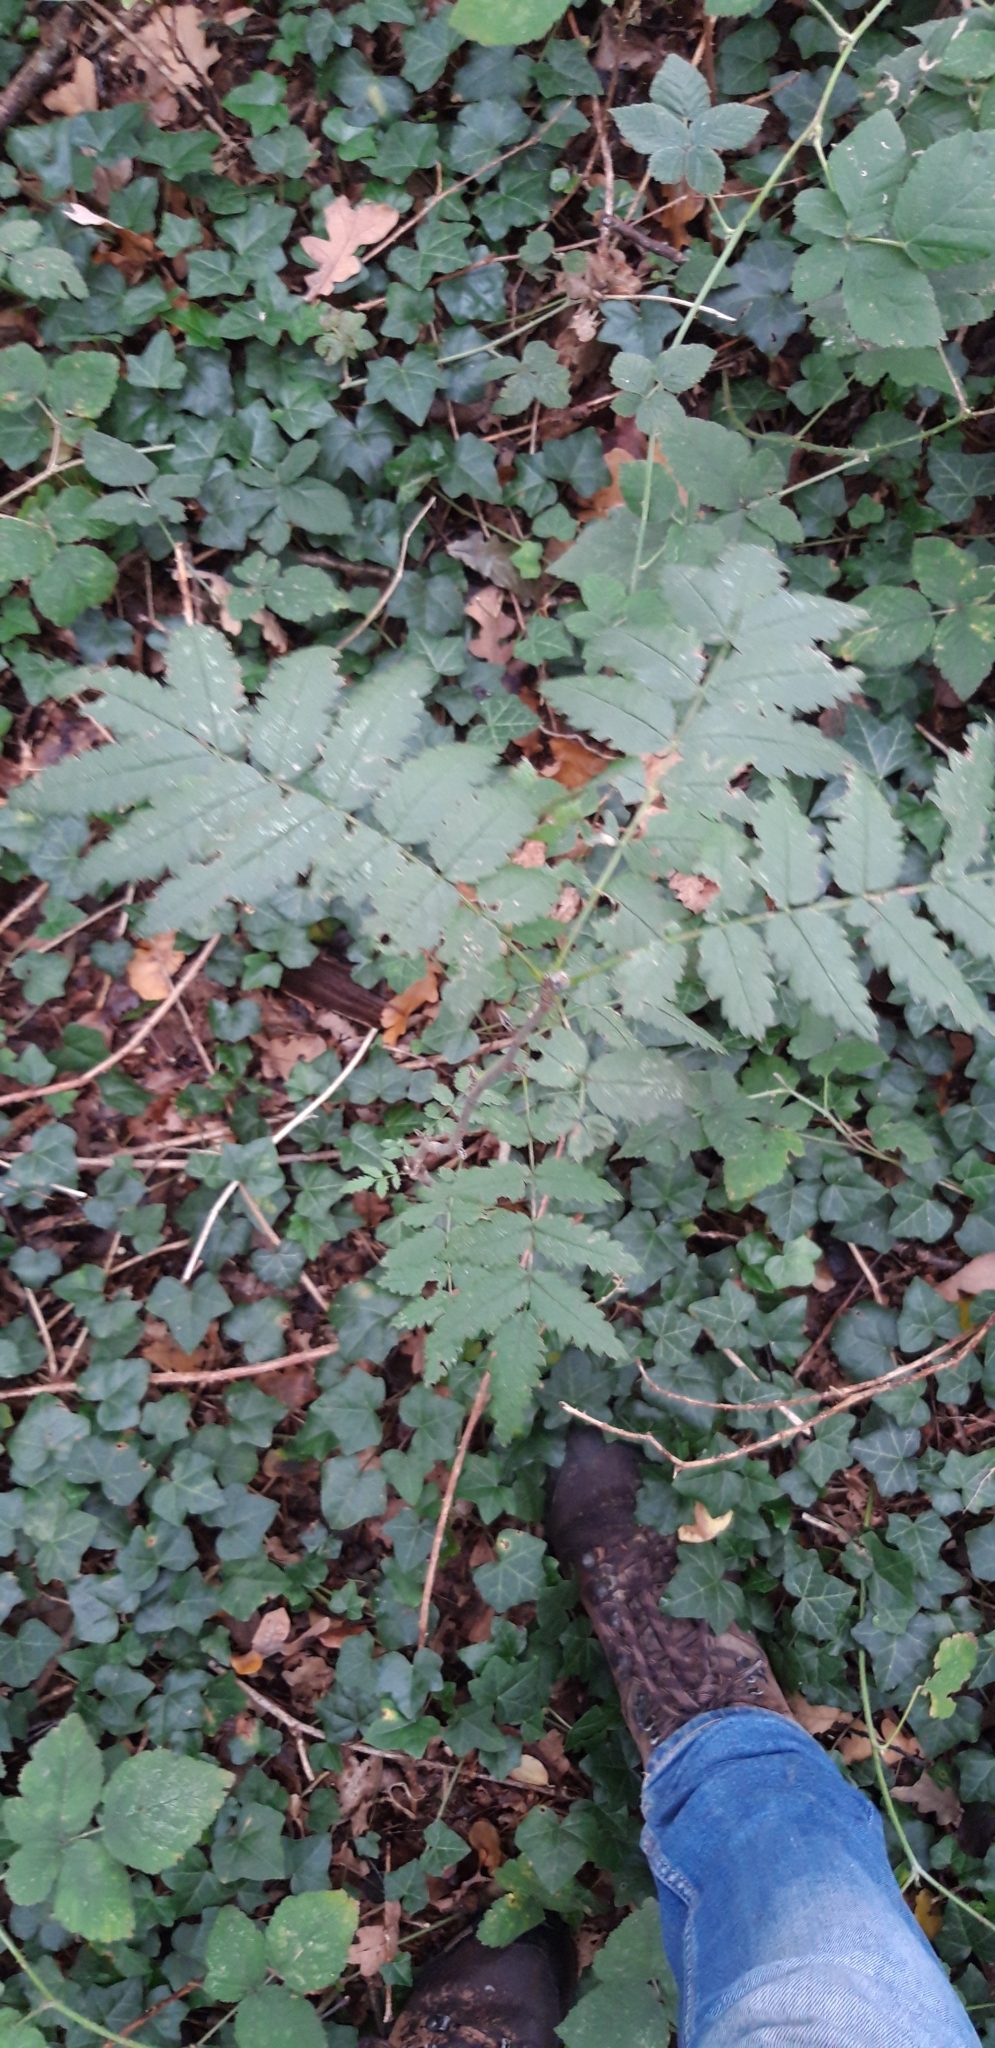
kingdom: Plantae
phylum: Tracheophyta
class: Magnoliopsida
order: Rosales
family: Rosaceae
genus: Sorbus
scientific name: Sorbus aucuparia
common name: Rowan
